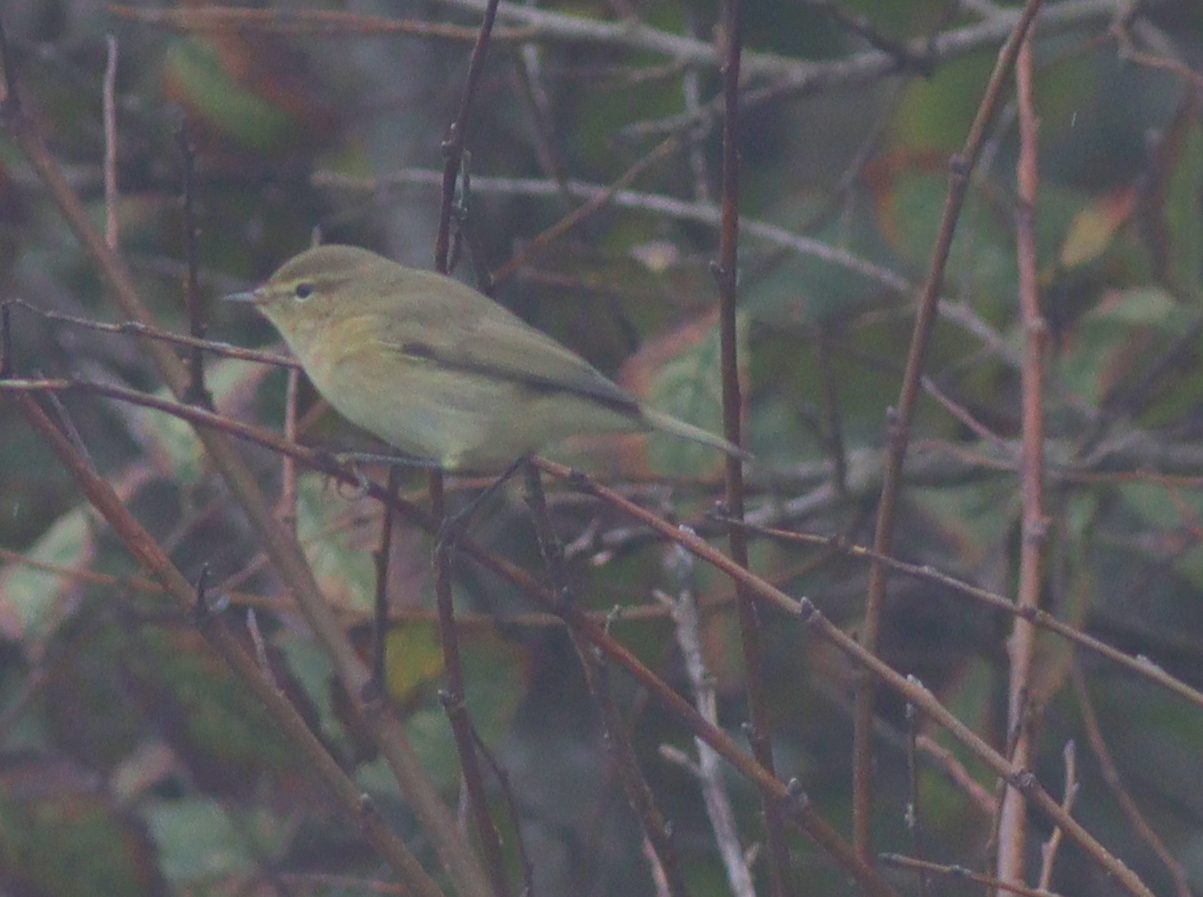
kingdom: Animalia
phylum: Chordata
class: Aves
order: Passeriformes
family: Phylloscopidae
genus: Phylloscopus
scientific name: Phylloscopus collybita
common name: Common chiffchaff
